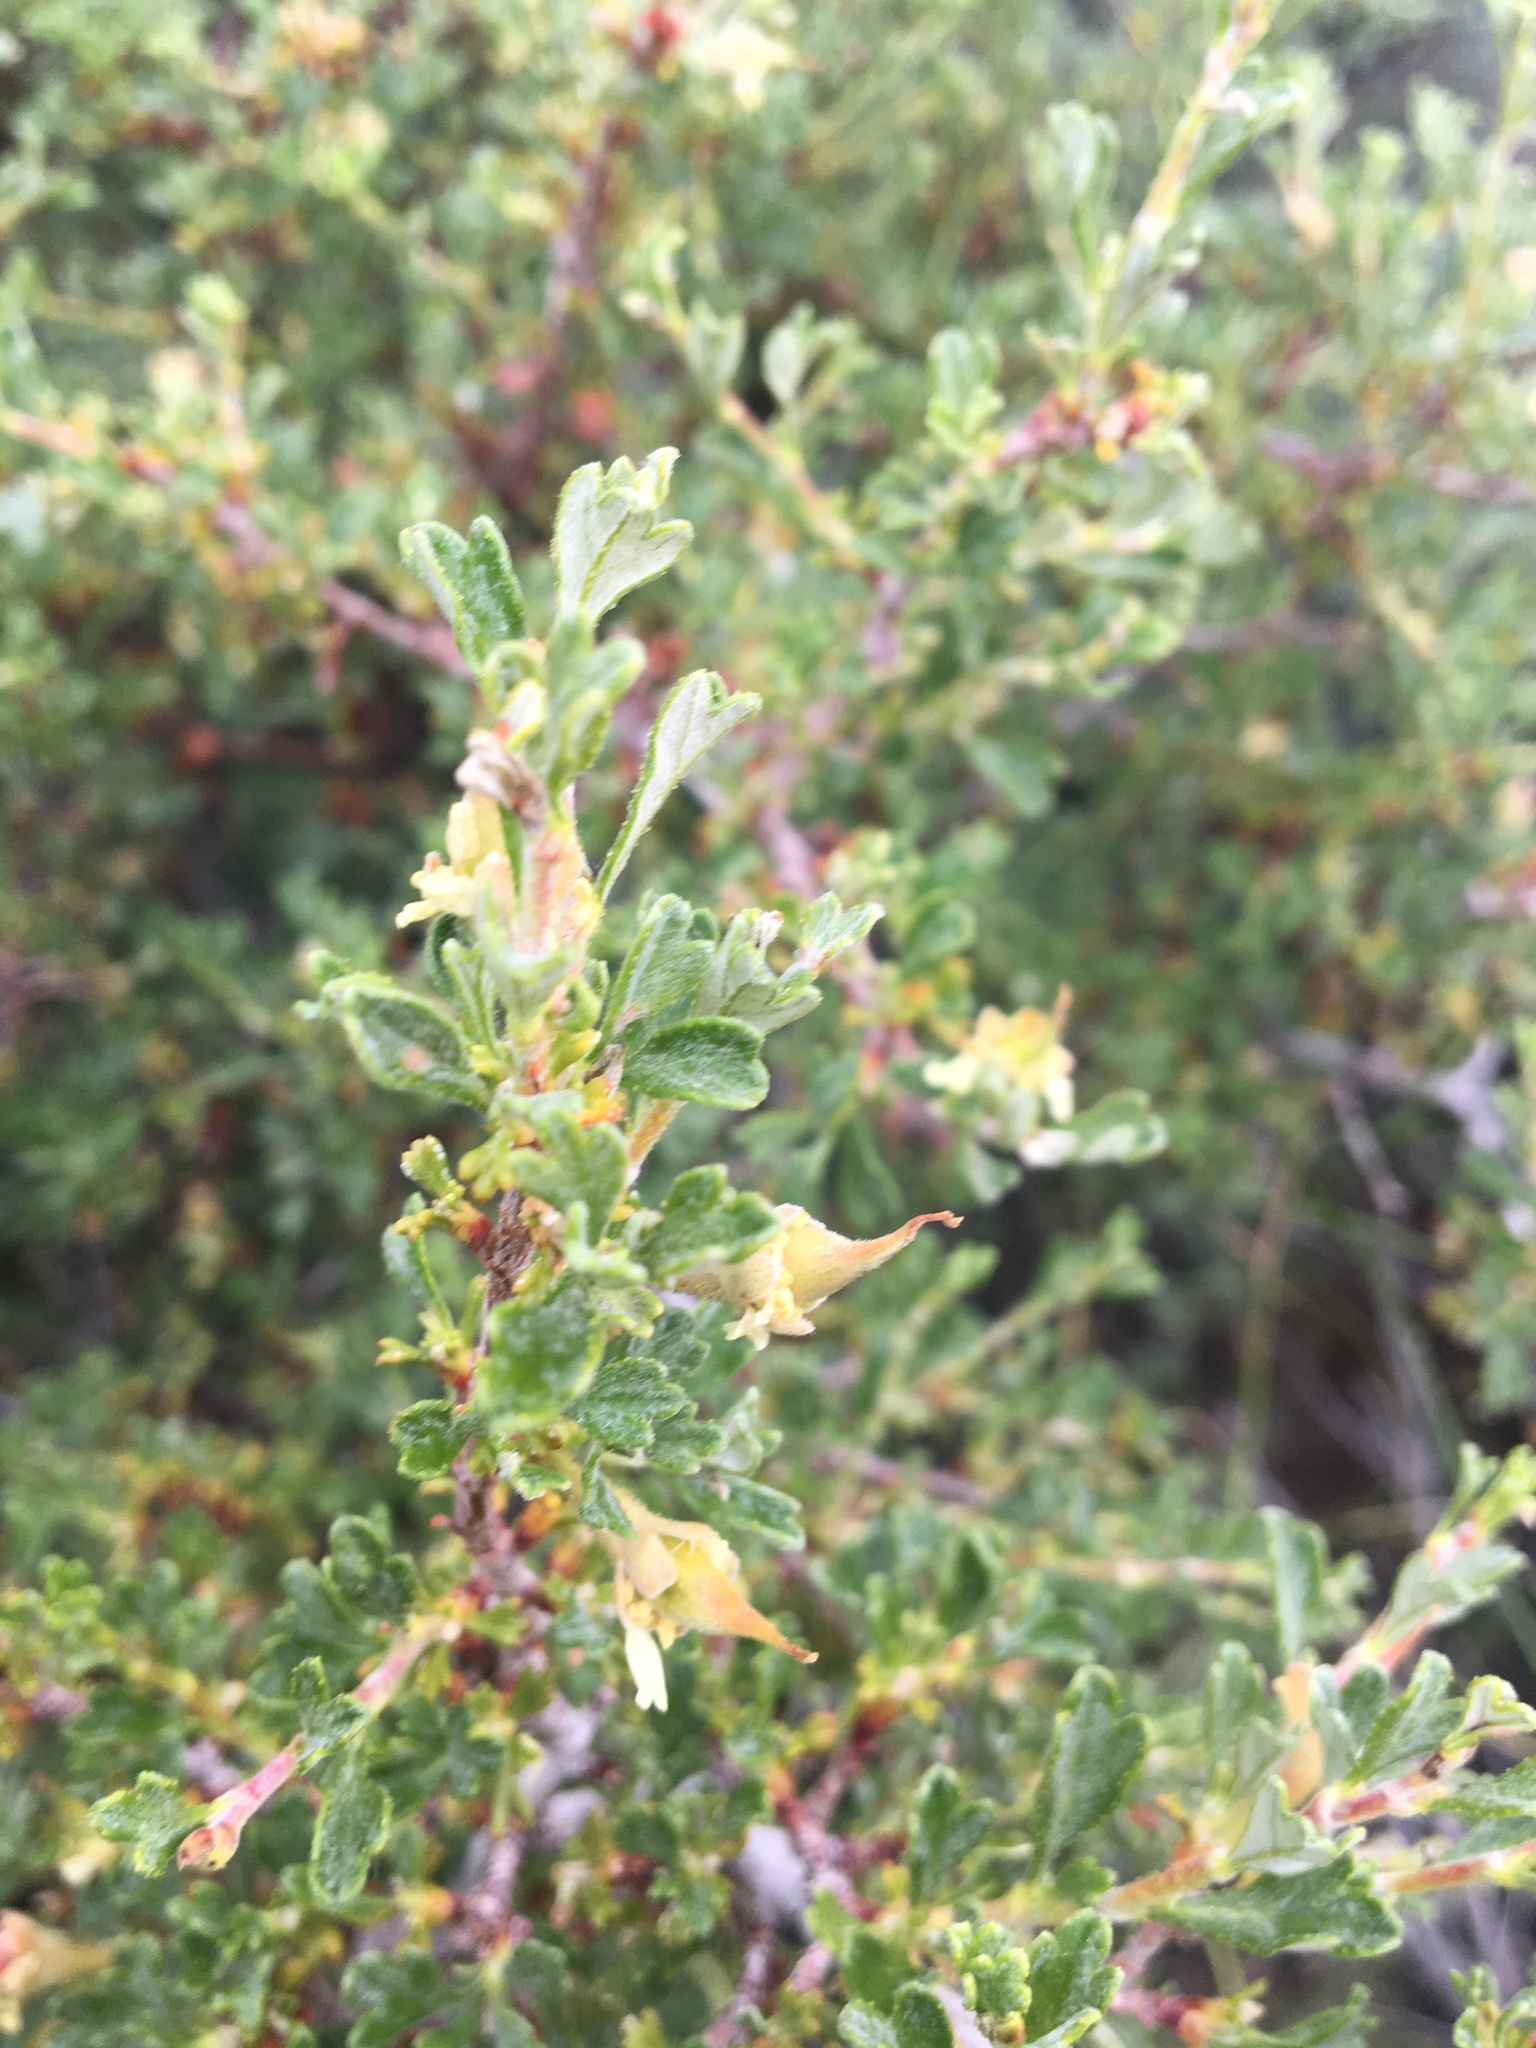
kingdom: Plantae
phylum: Tracheophyta
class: Magnoliopsida
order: Rosales
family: Rosaceae
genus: Purshia
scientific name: Purshia tridentata
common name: Antelope bitterbrush
